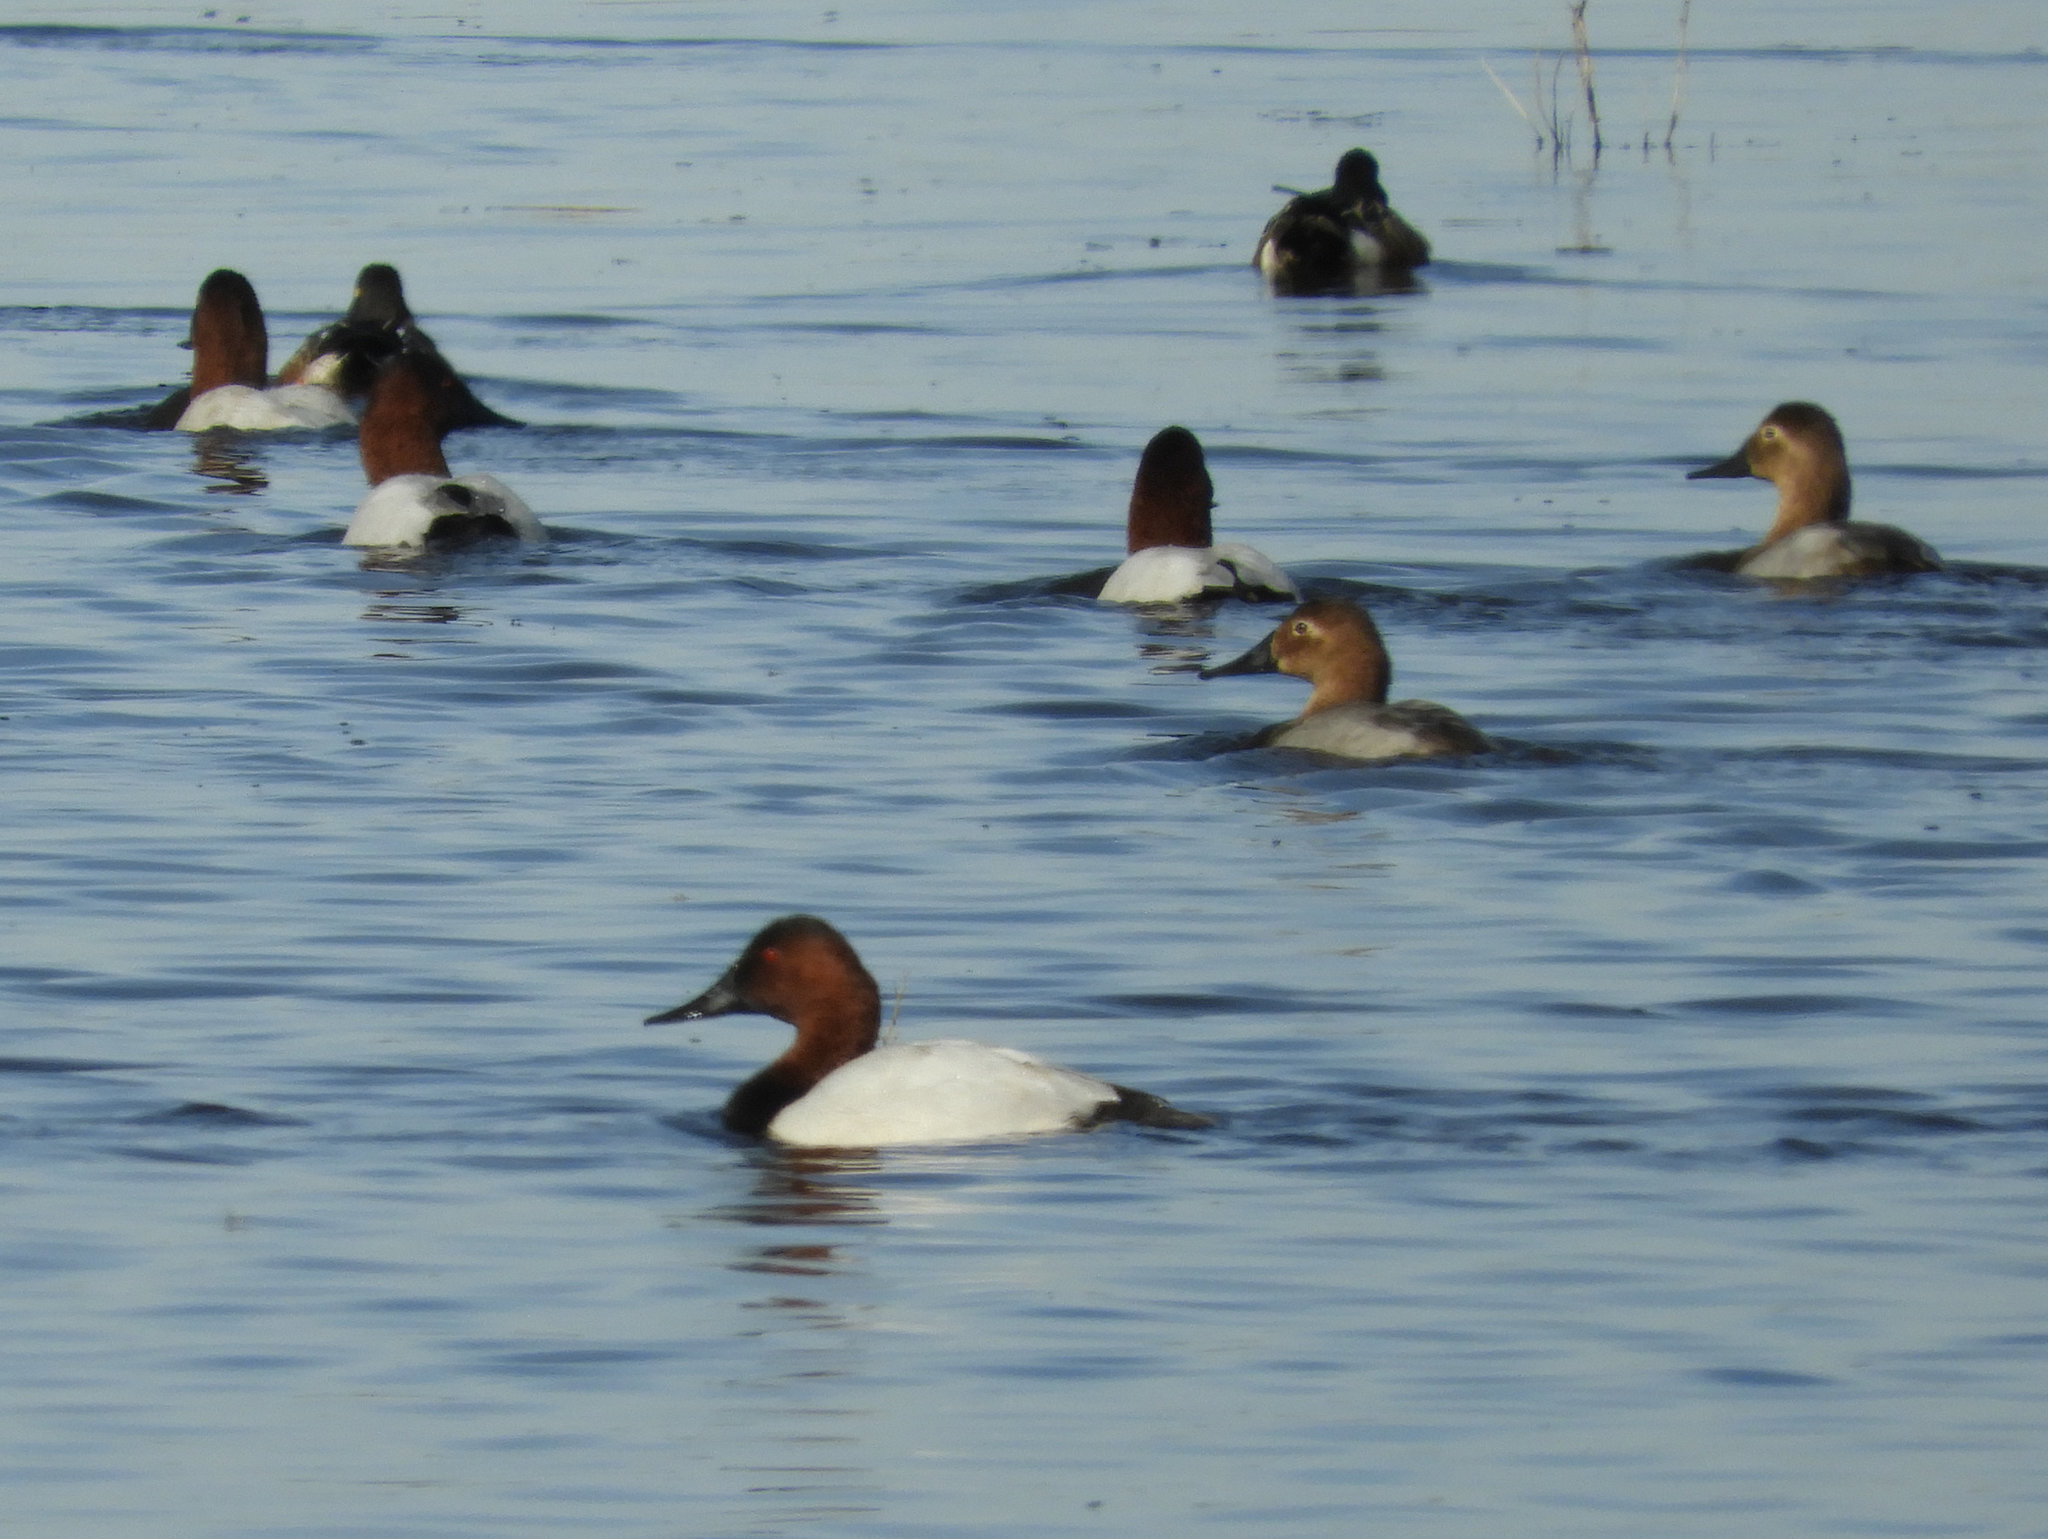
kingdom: Animalia
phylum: Chordata
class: Aves
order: Anseriformes
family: Anatidae
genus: Aythya
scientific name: Aythya valisineria
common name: Canvasback
